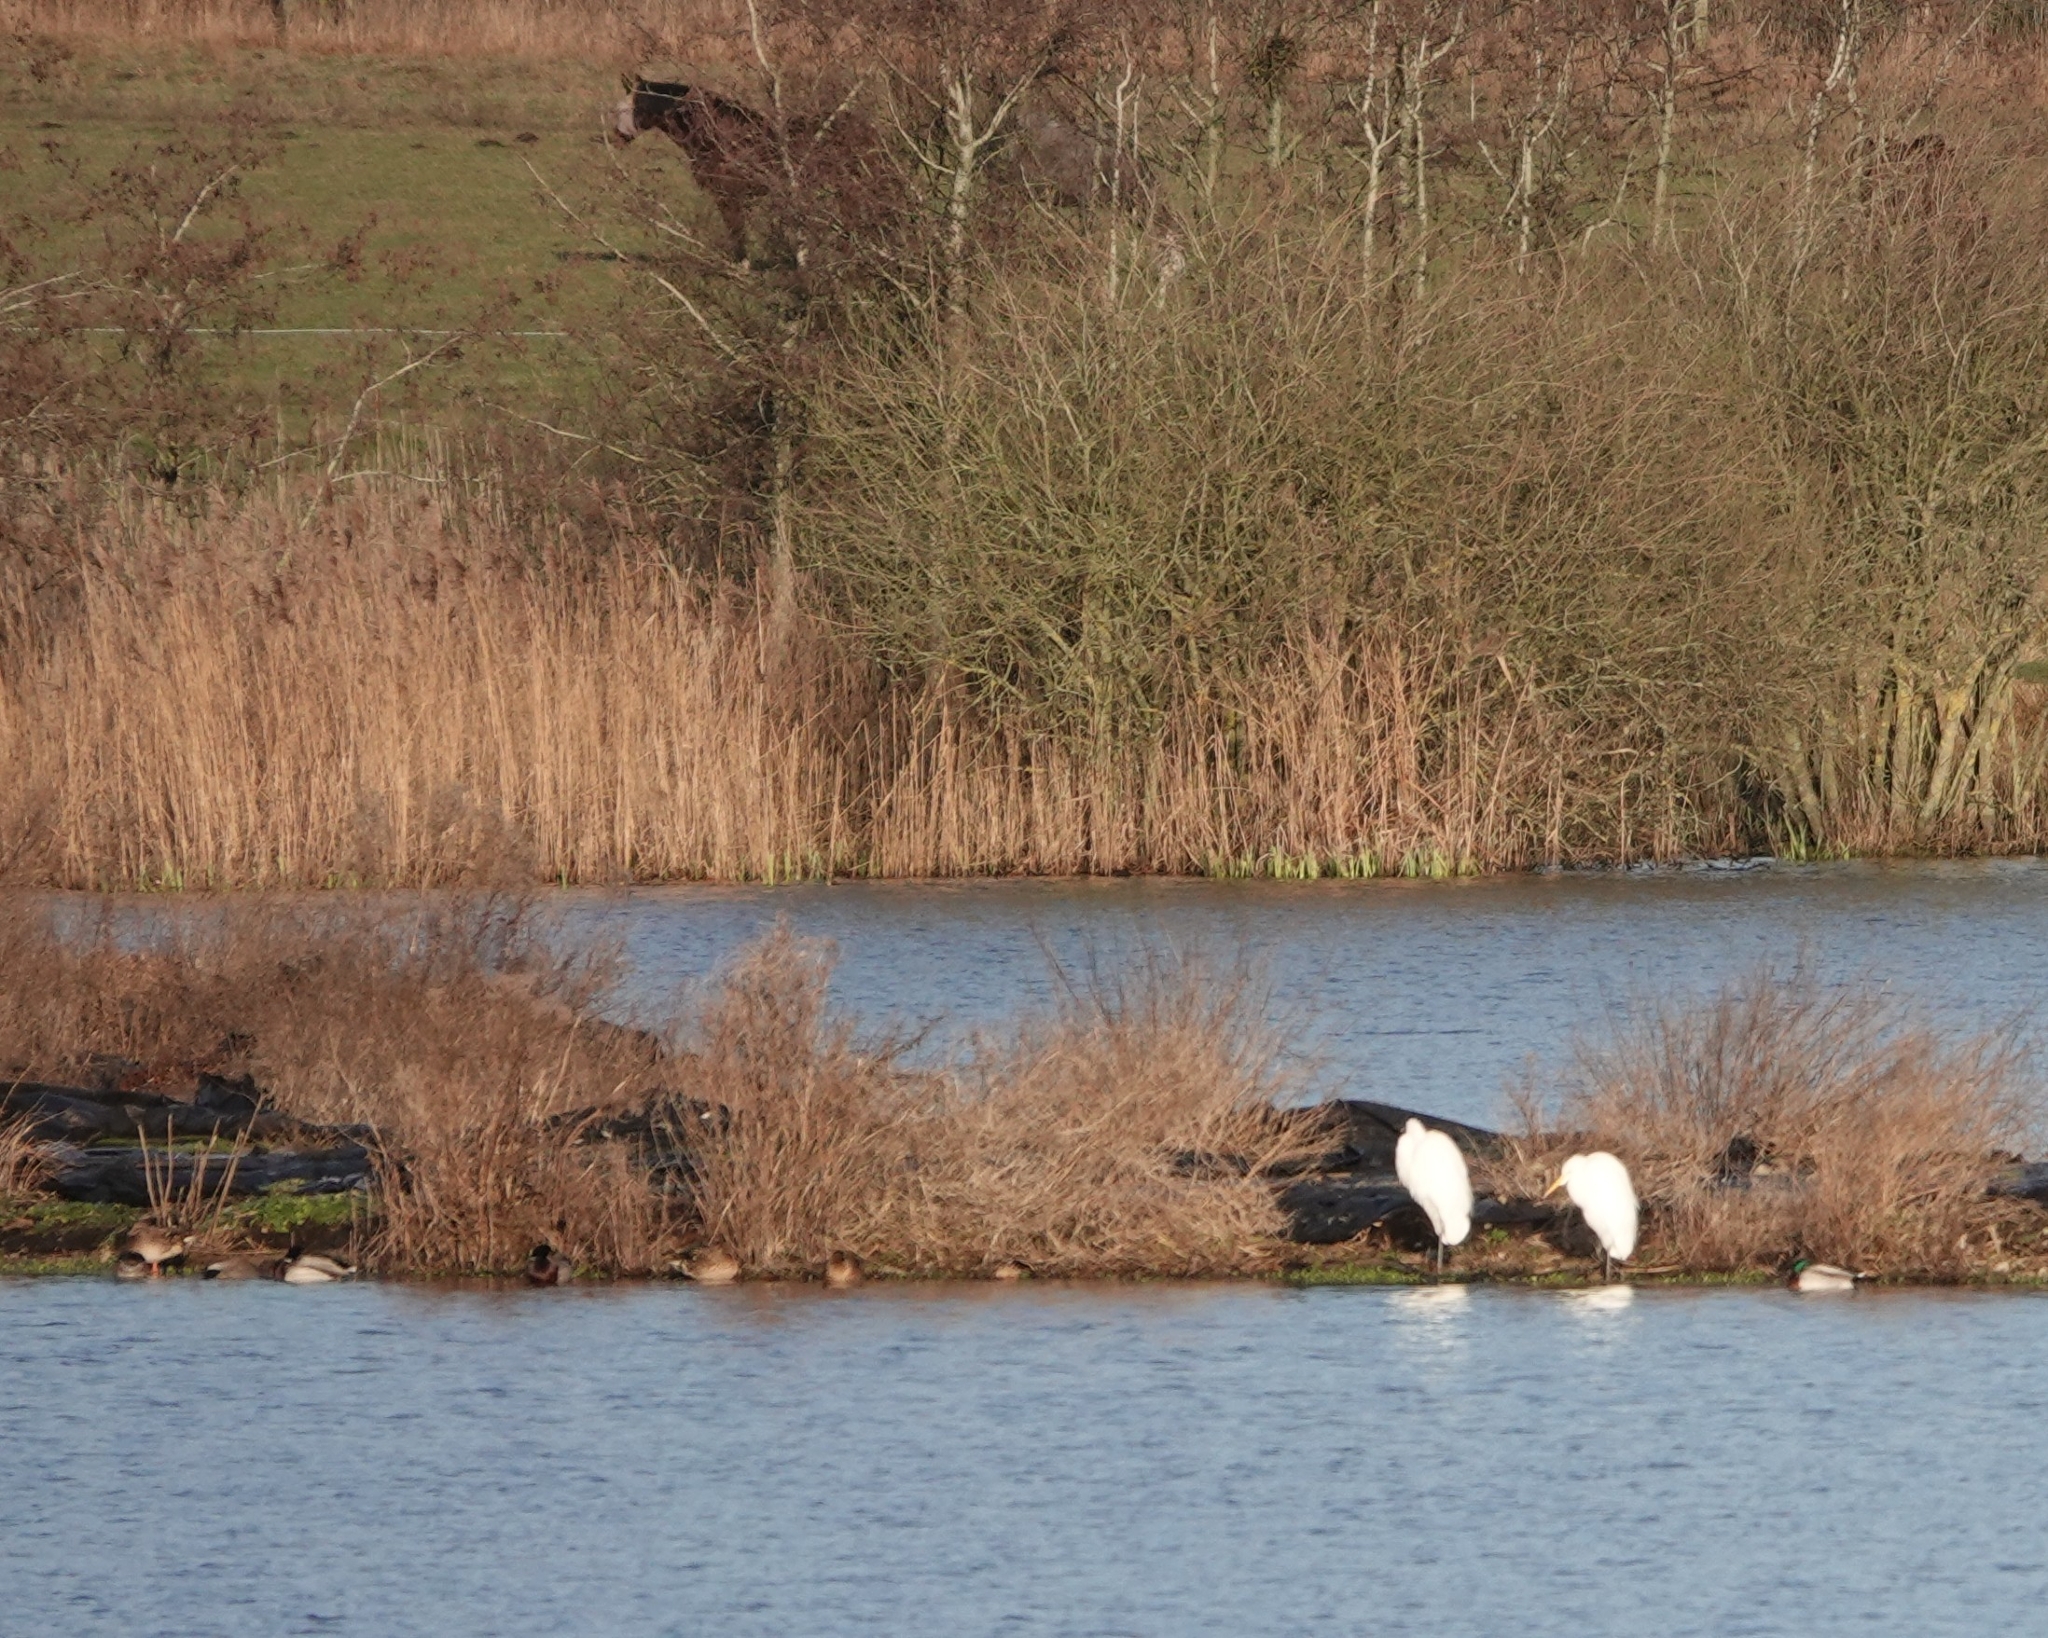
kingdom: Animalia
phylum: Chordata
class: Aves
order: Pelecaniformes
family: Ardeidae
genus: Ardea
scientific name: Ardea alba
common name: Great egret
